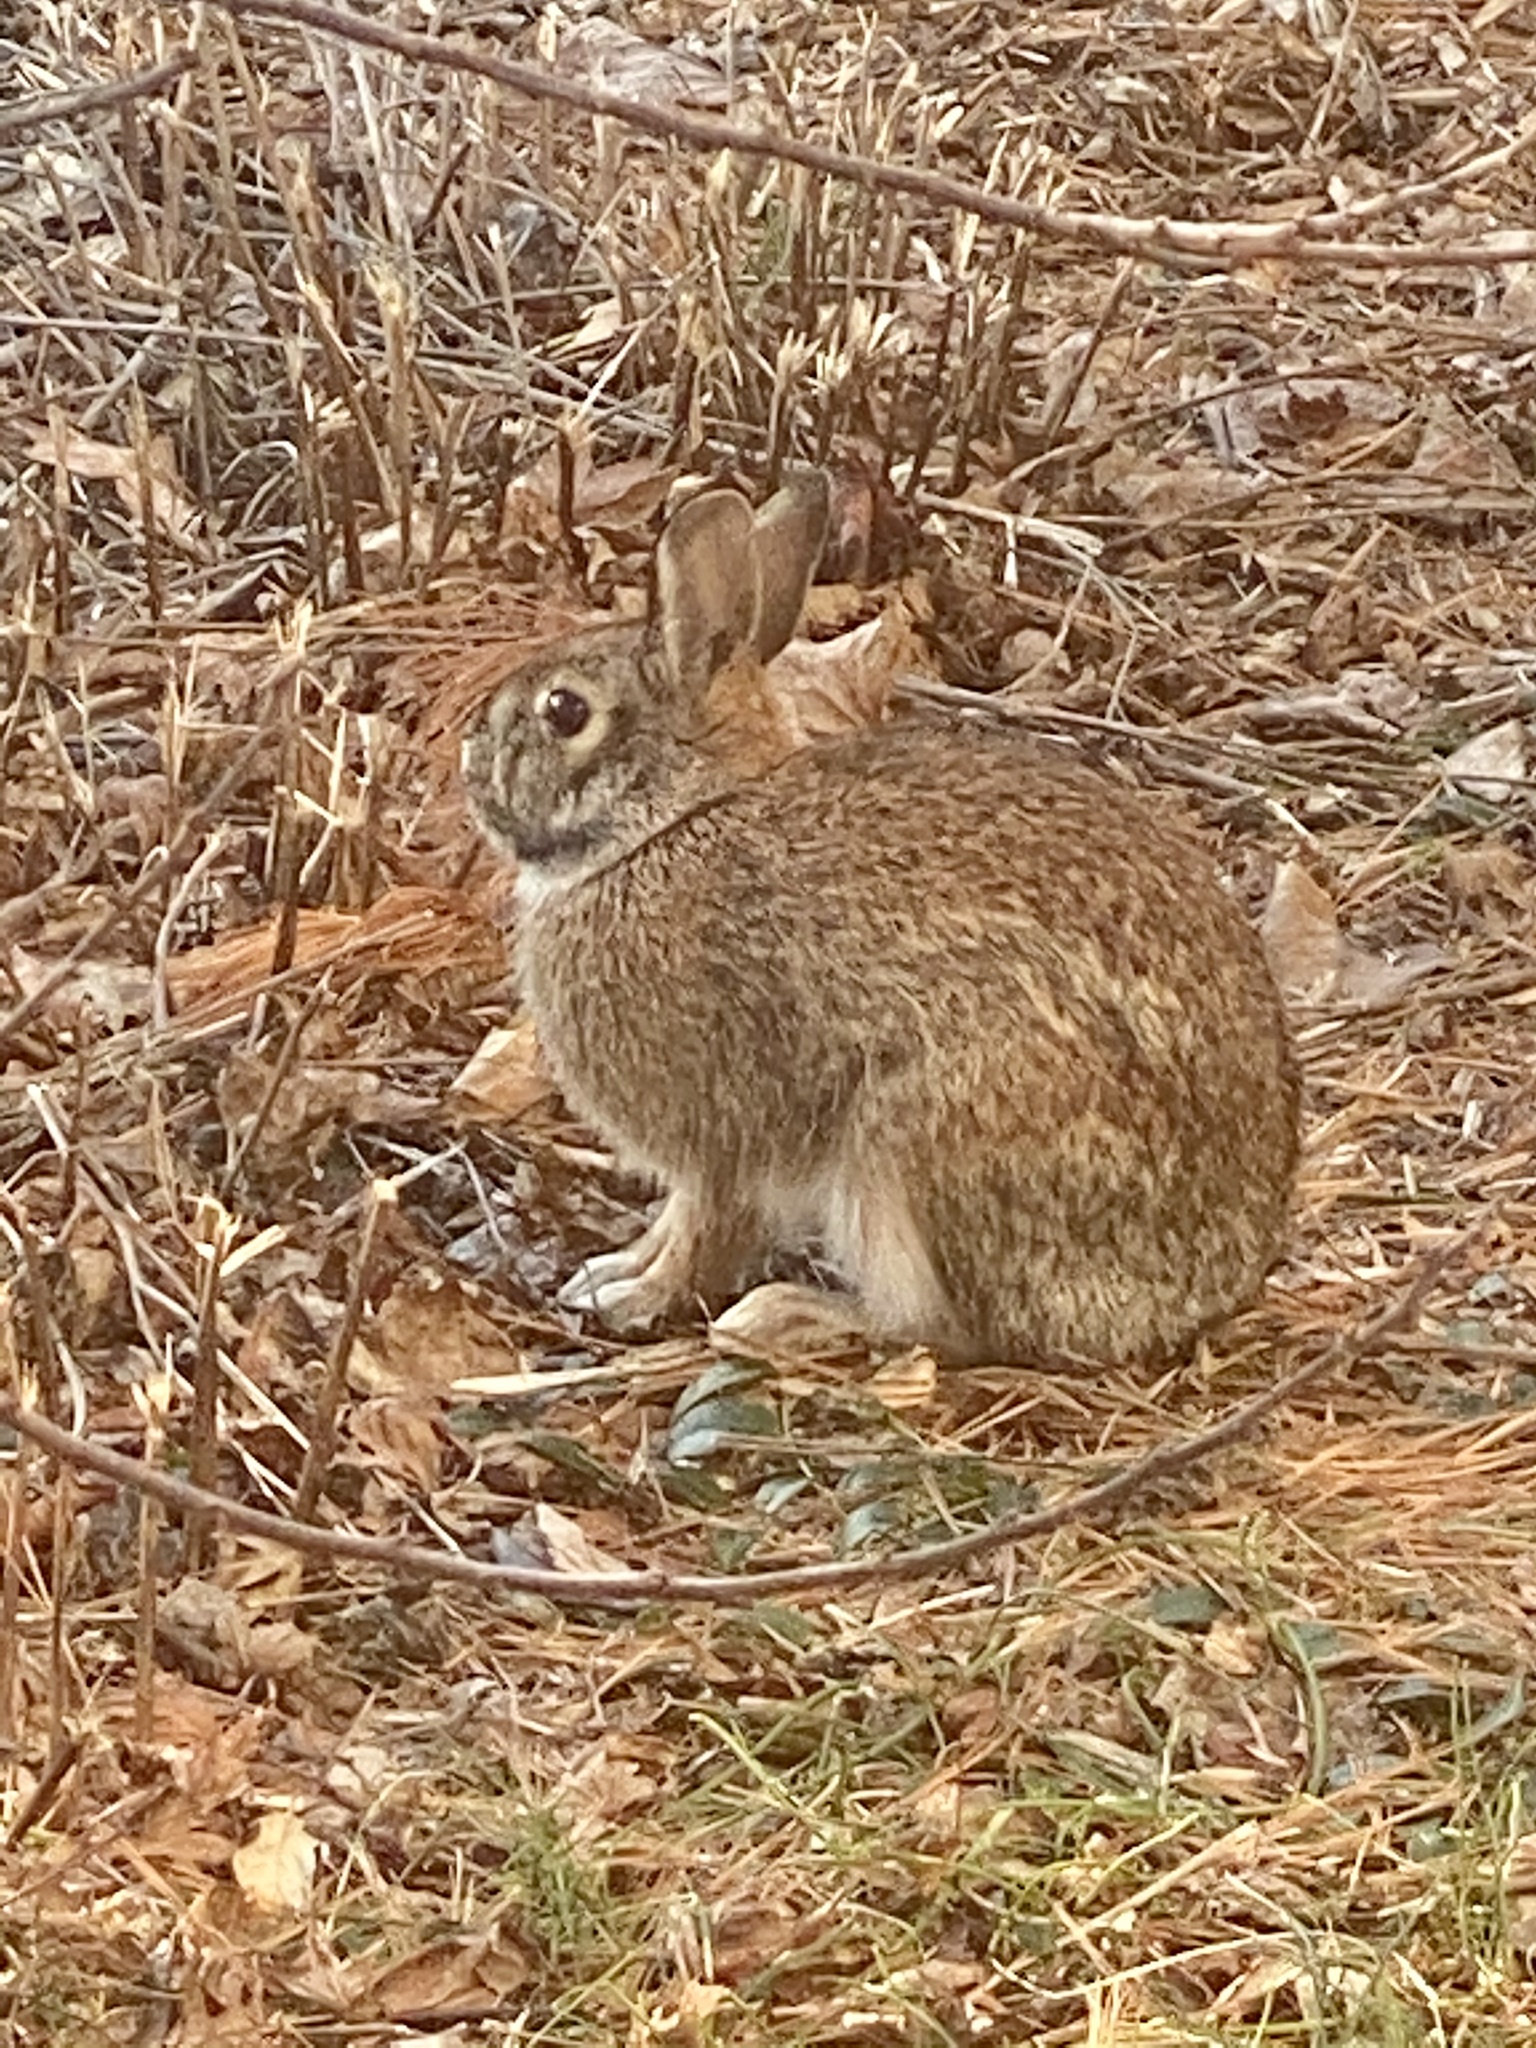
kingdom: Animalia
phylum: Chordata
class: Mammalia
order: Lagomorpha
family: Leporidae
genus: Sylvilagus
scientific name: Sylvilagus floridanus
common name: Eastern cottontail
